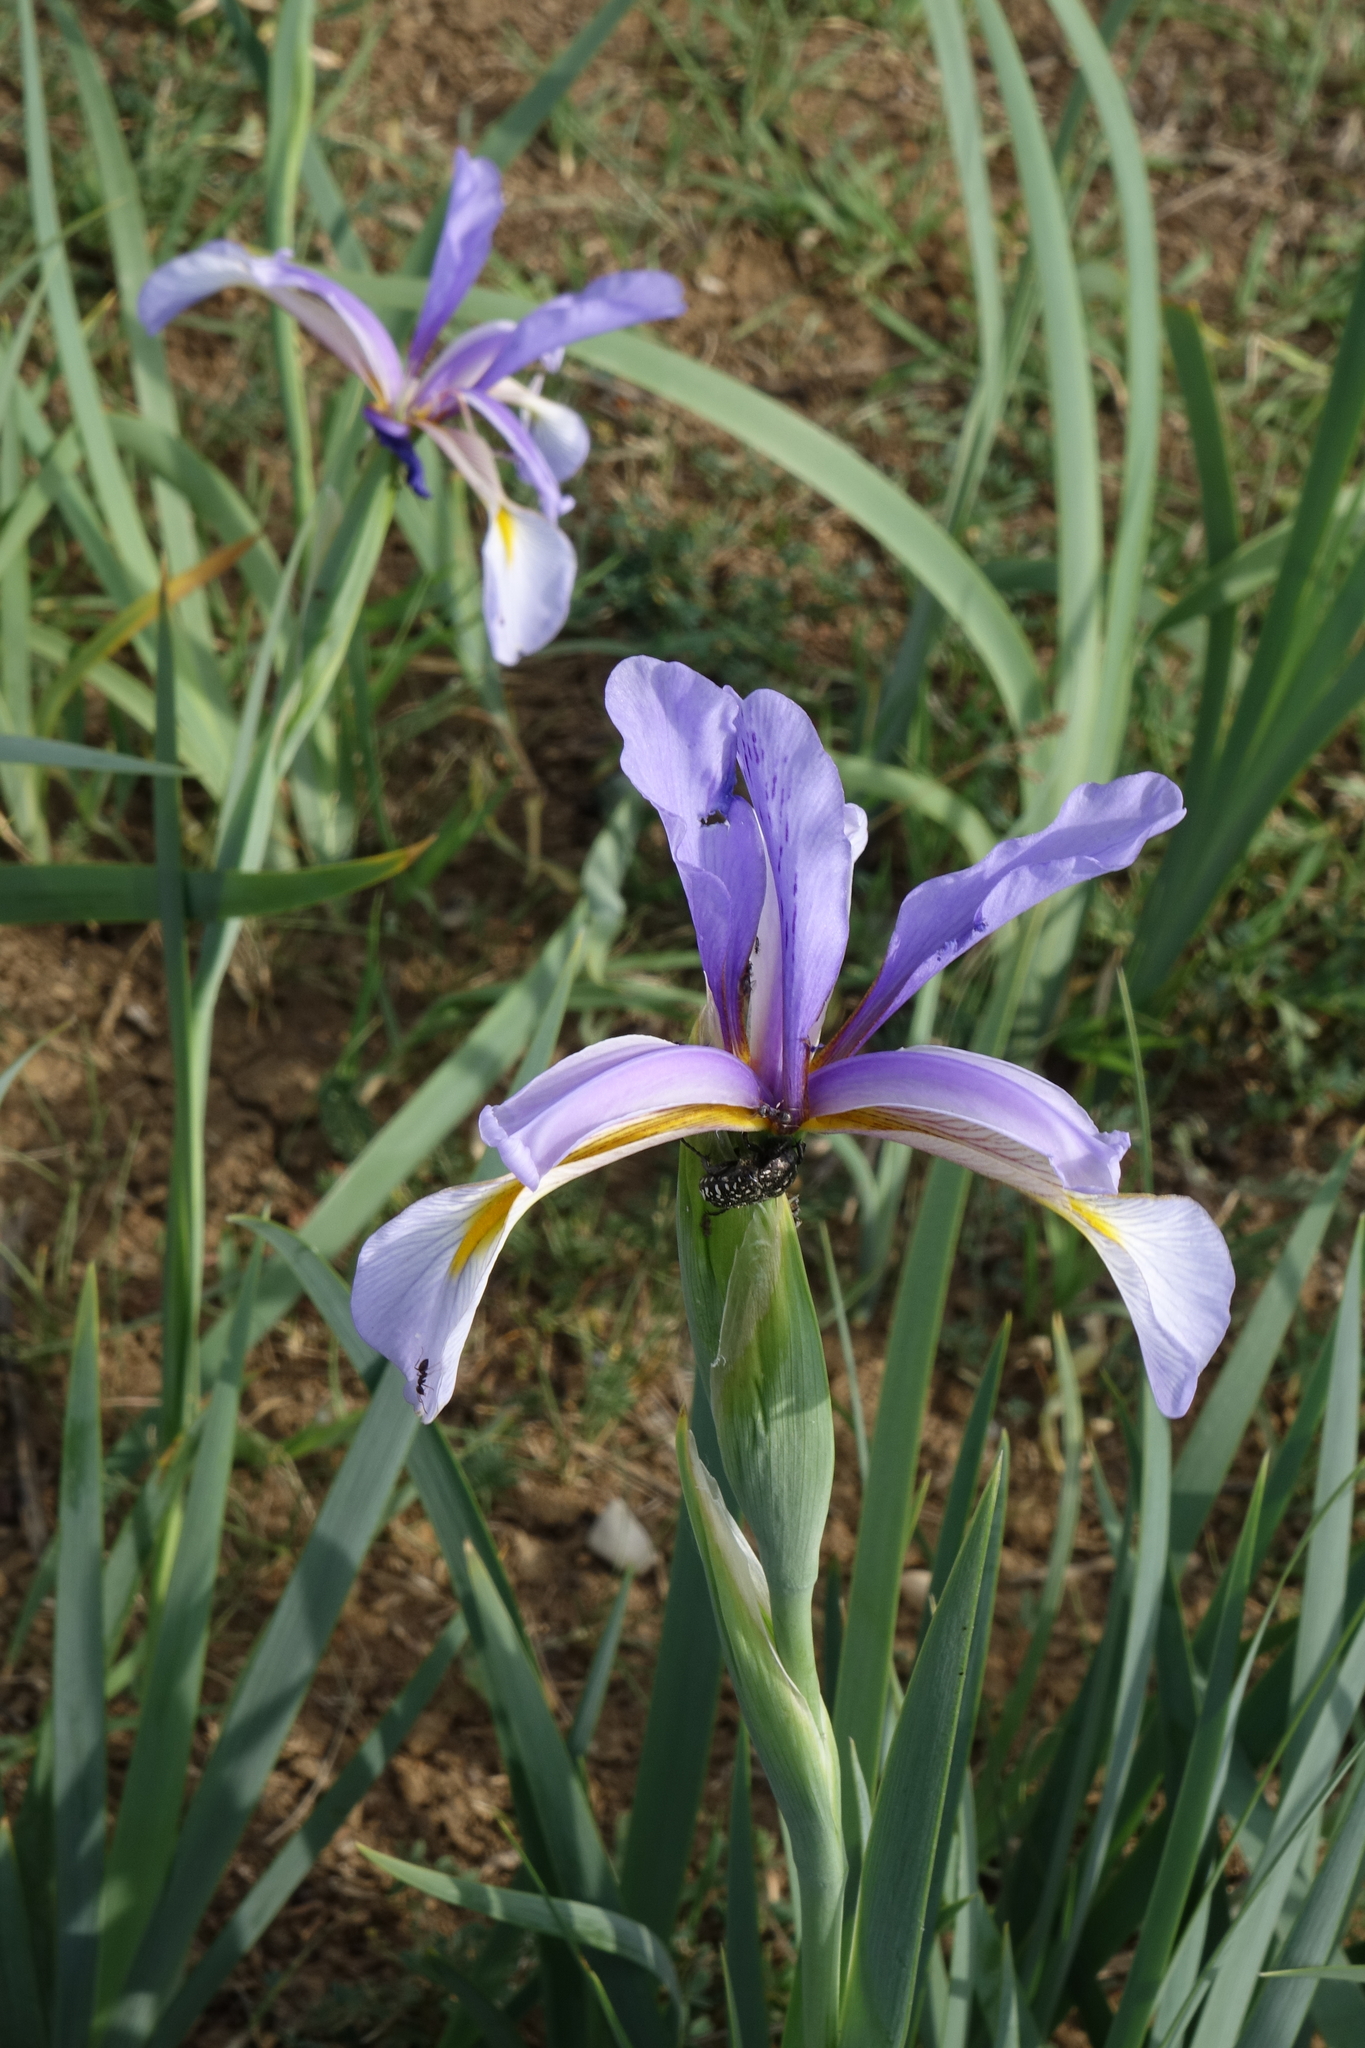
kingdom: Plantae
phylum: Tracheophyta
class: Liliopsida
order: Asparagales
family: Iridaceae
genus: Iris
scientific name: Iris pseudonotha
